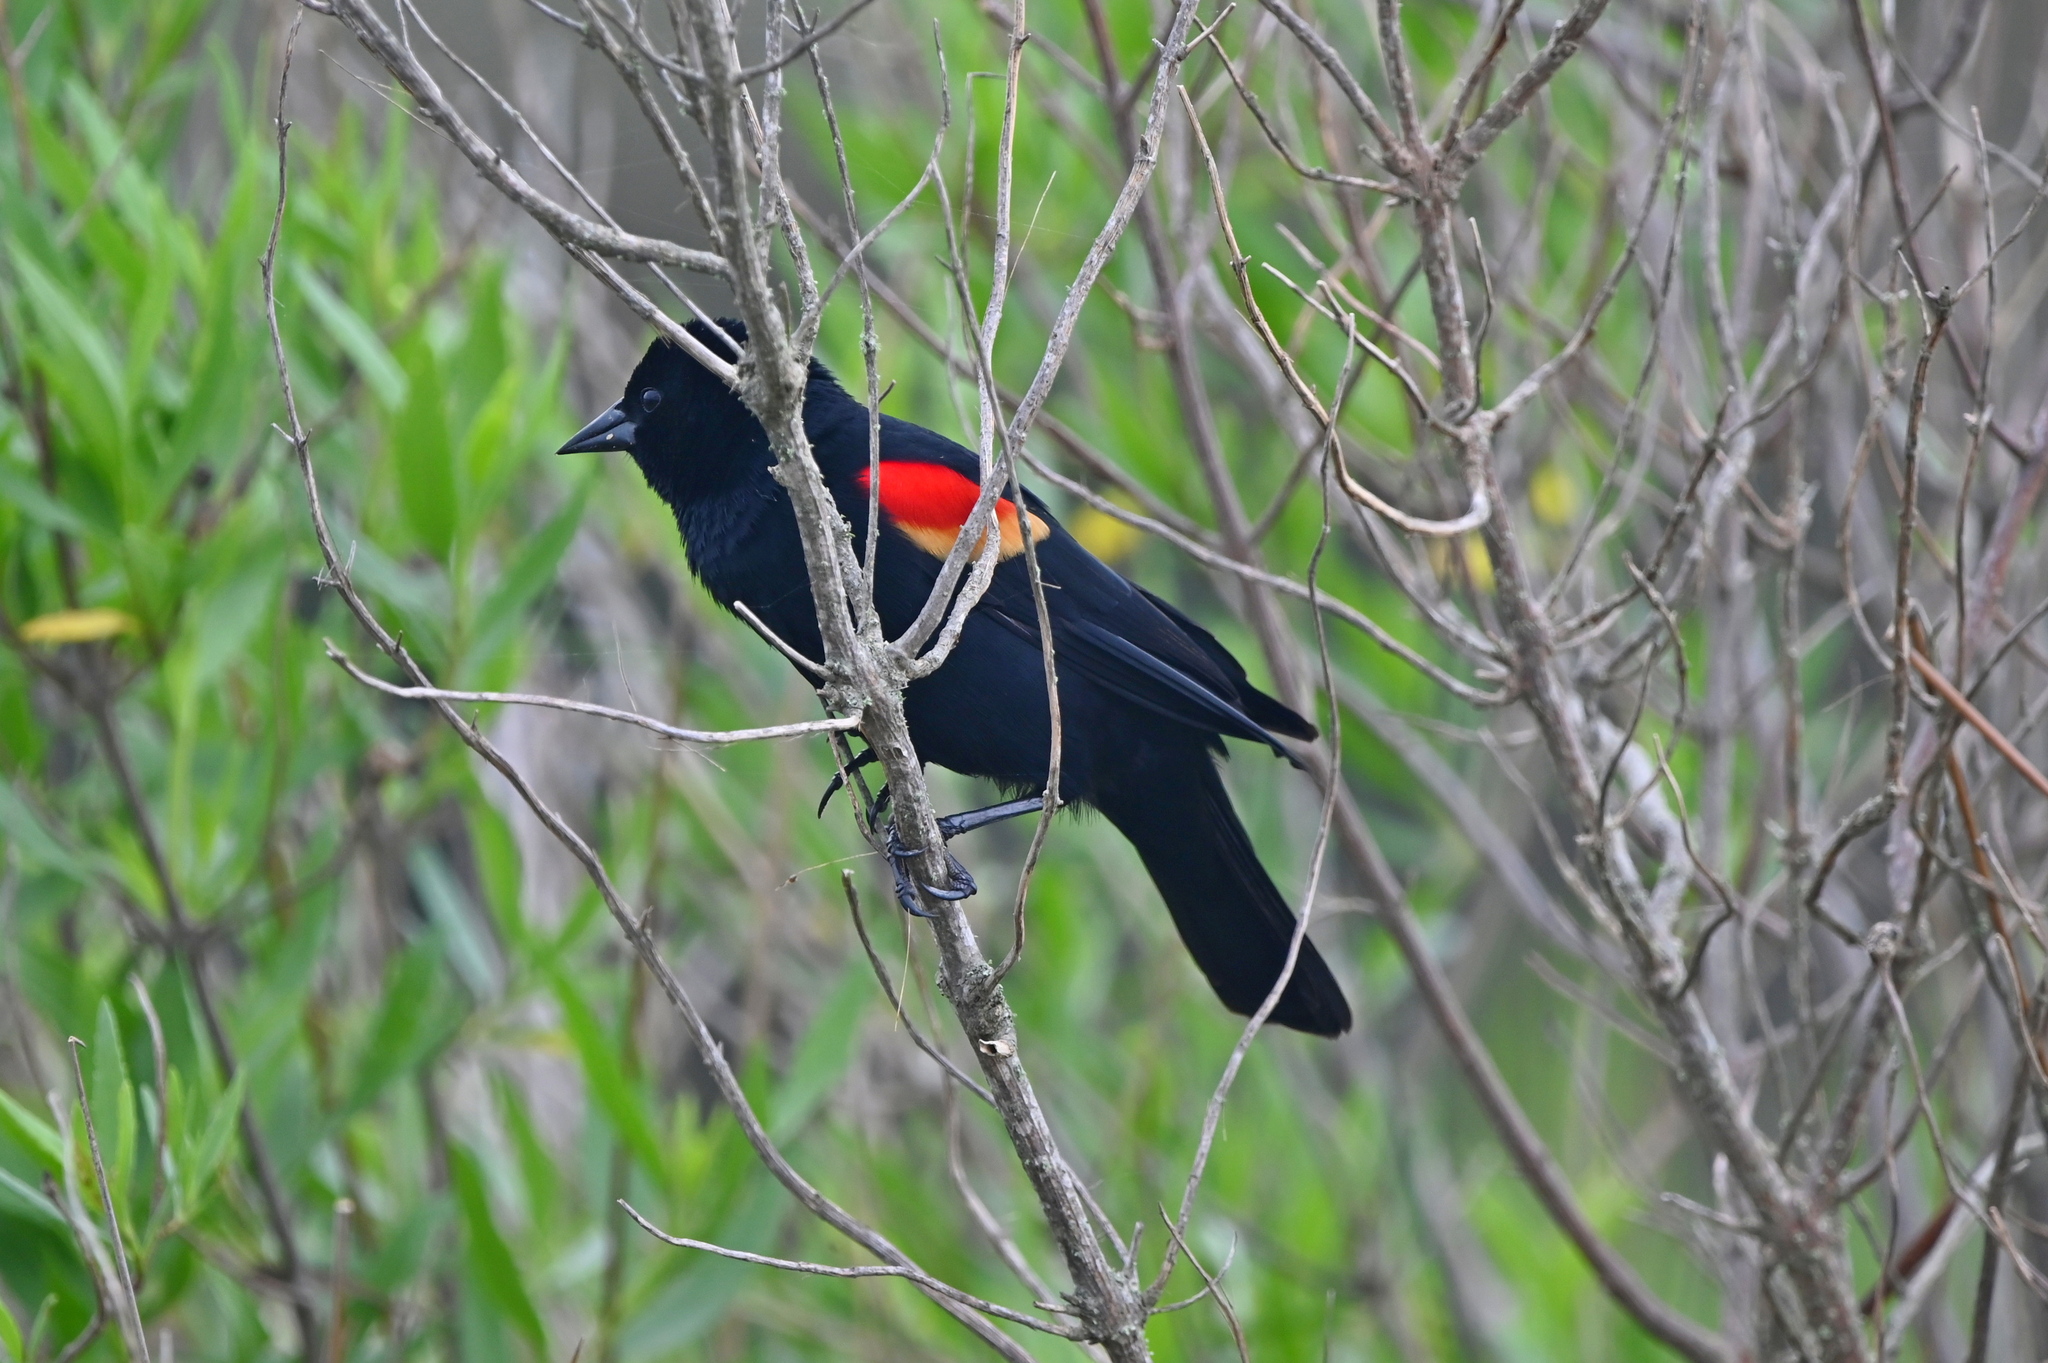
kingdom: Animalia
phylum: Chordata
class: Aves
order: Passeriformes
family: Icteridae
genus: Agelaius
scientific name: Agelaius phoeniceus
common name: Red-winged blackbird
